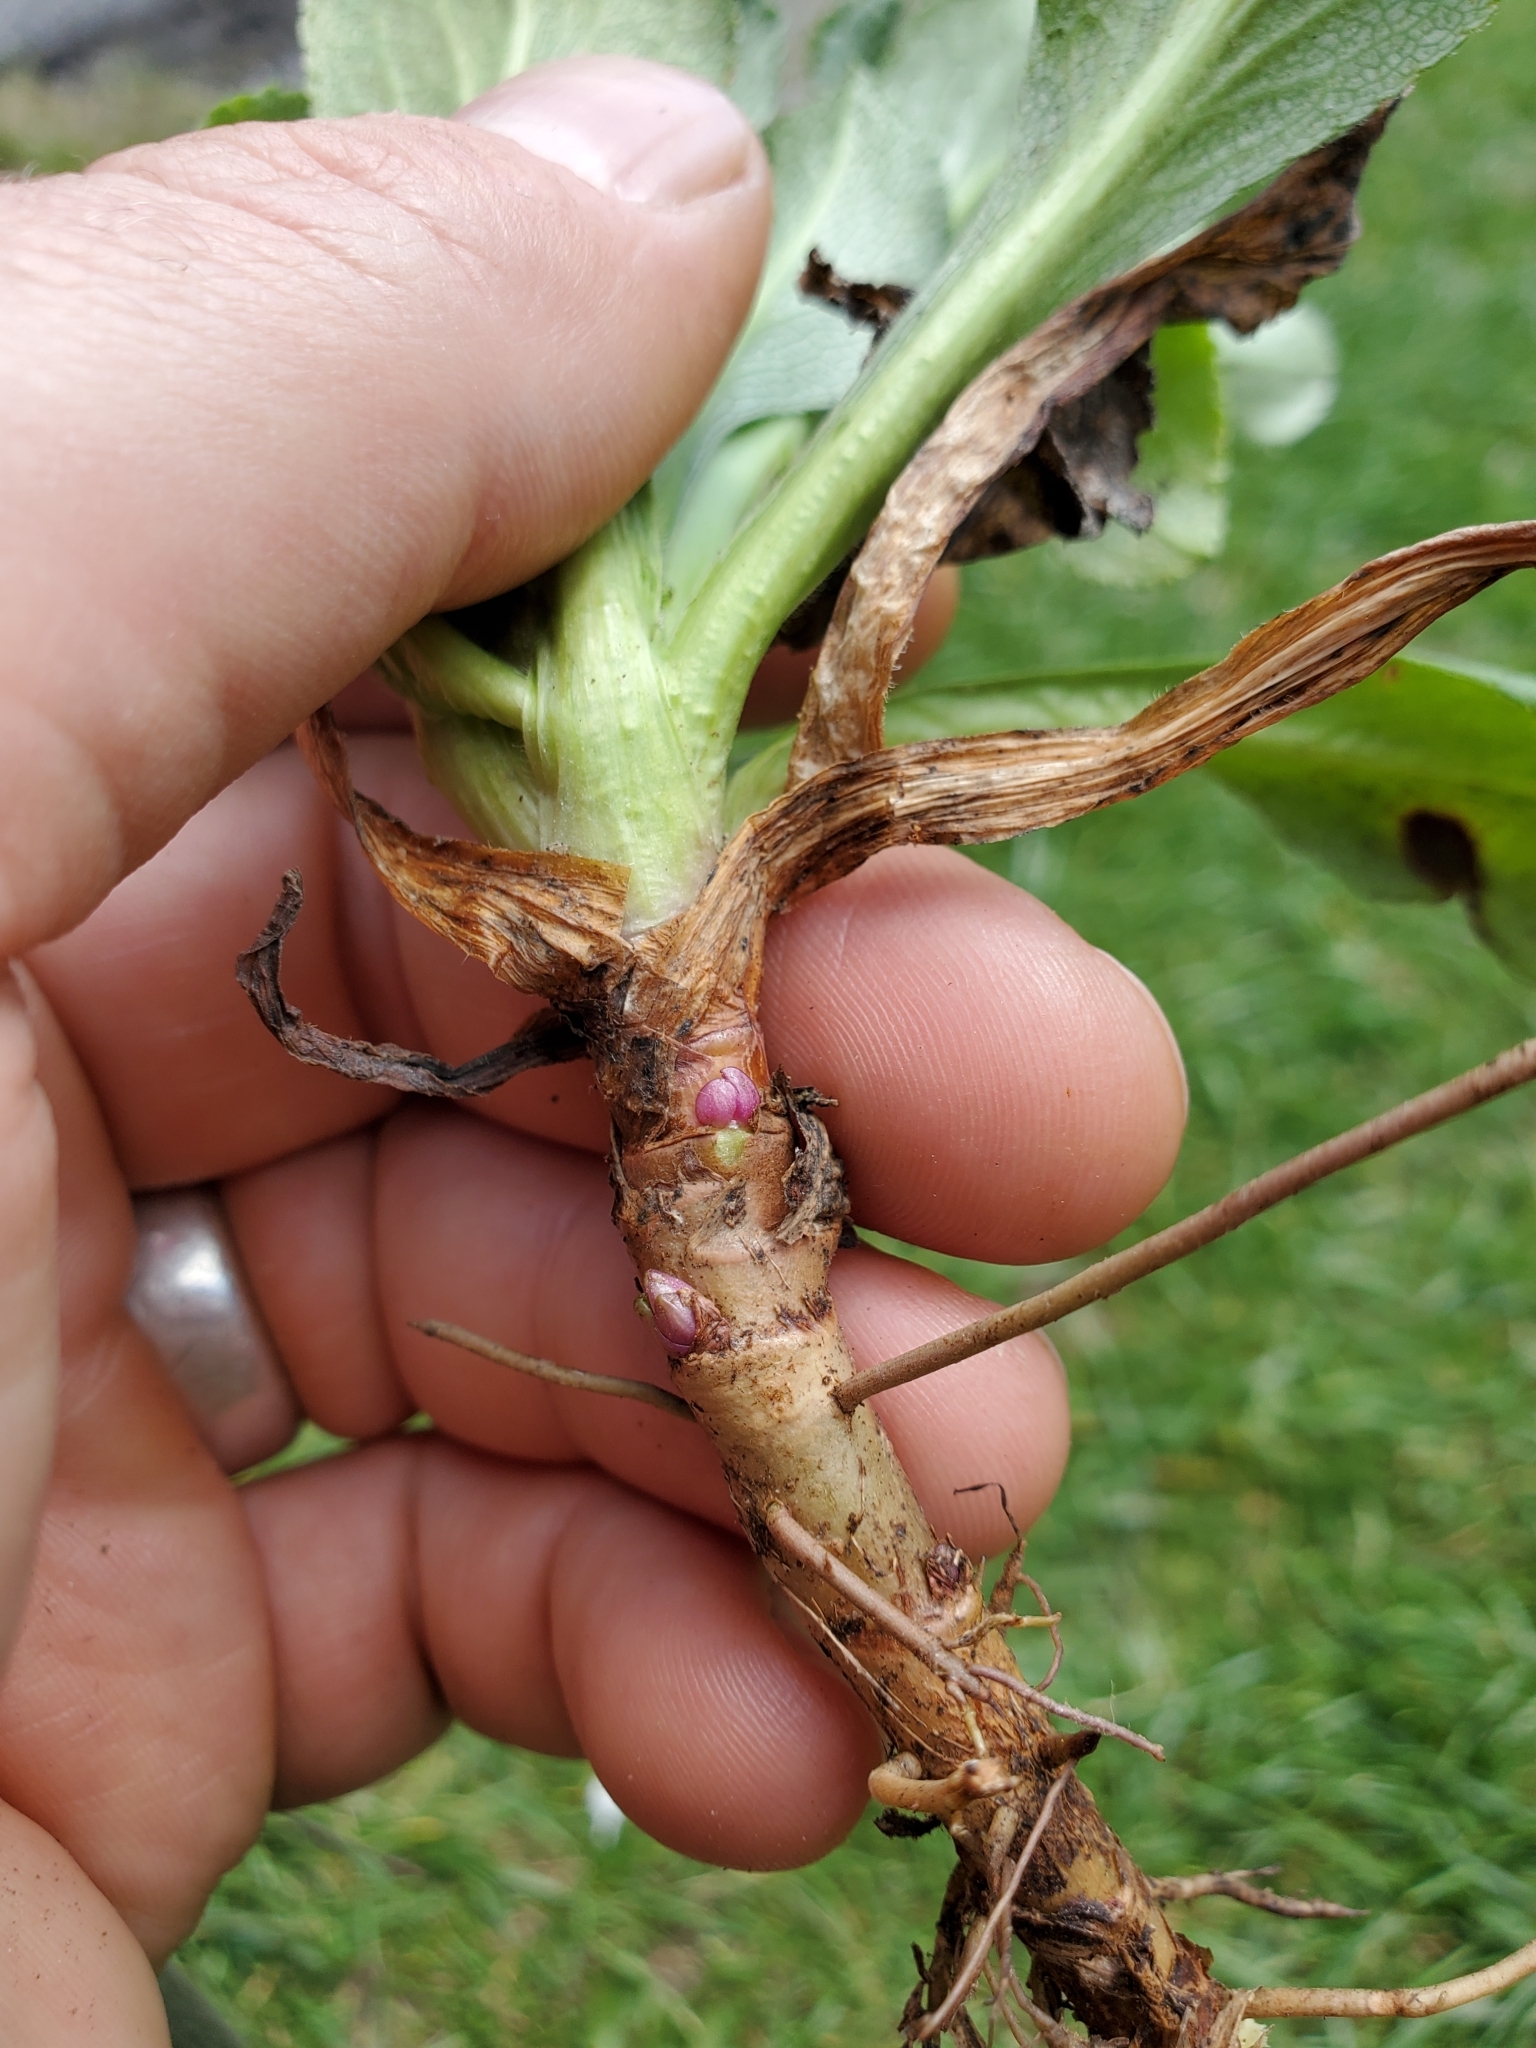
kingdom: Plantae
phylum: Tracheophyta
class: Magnoliopsida
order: Asterales
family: Asteraceae
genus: Solidago
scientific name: Solidago glomerata
